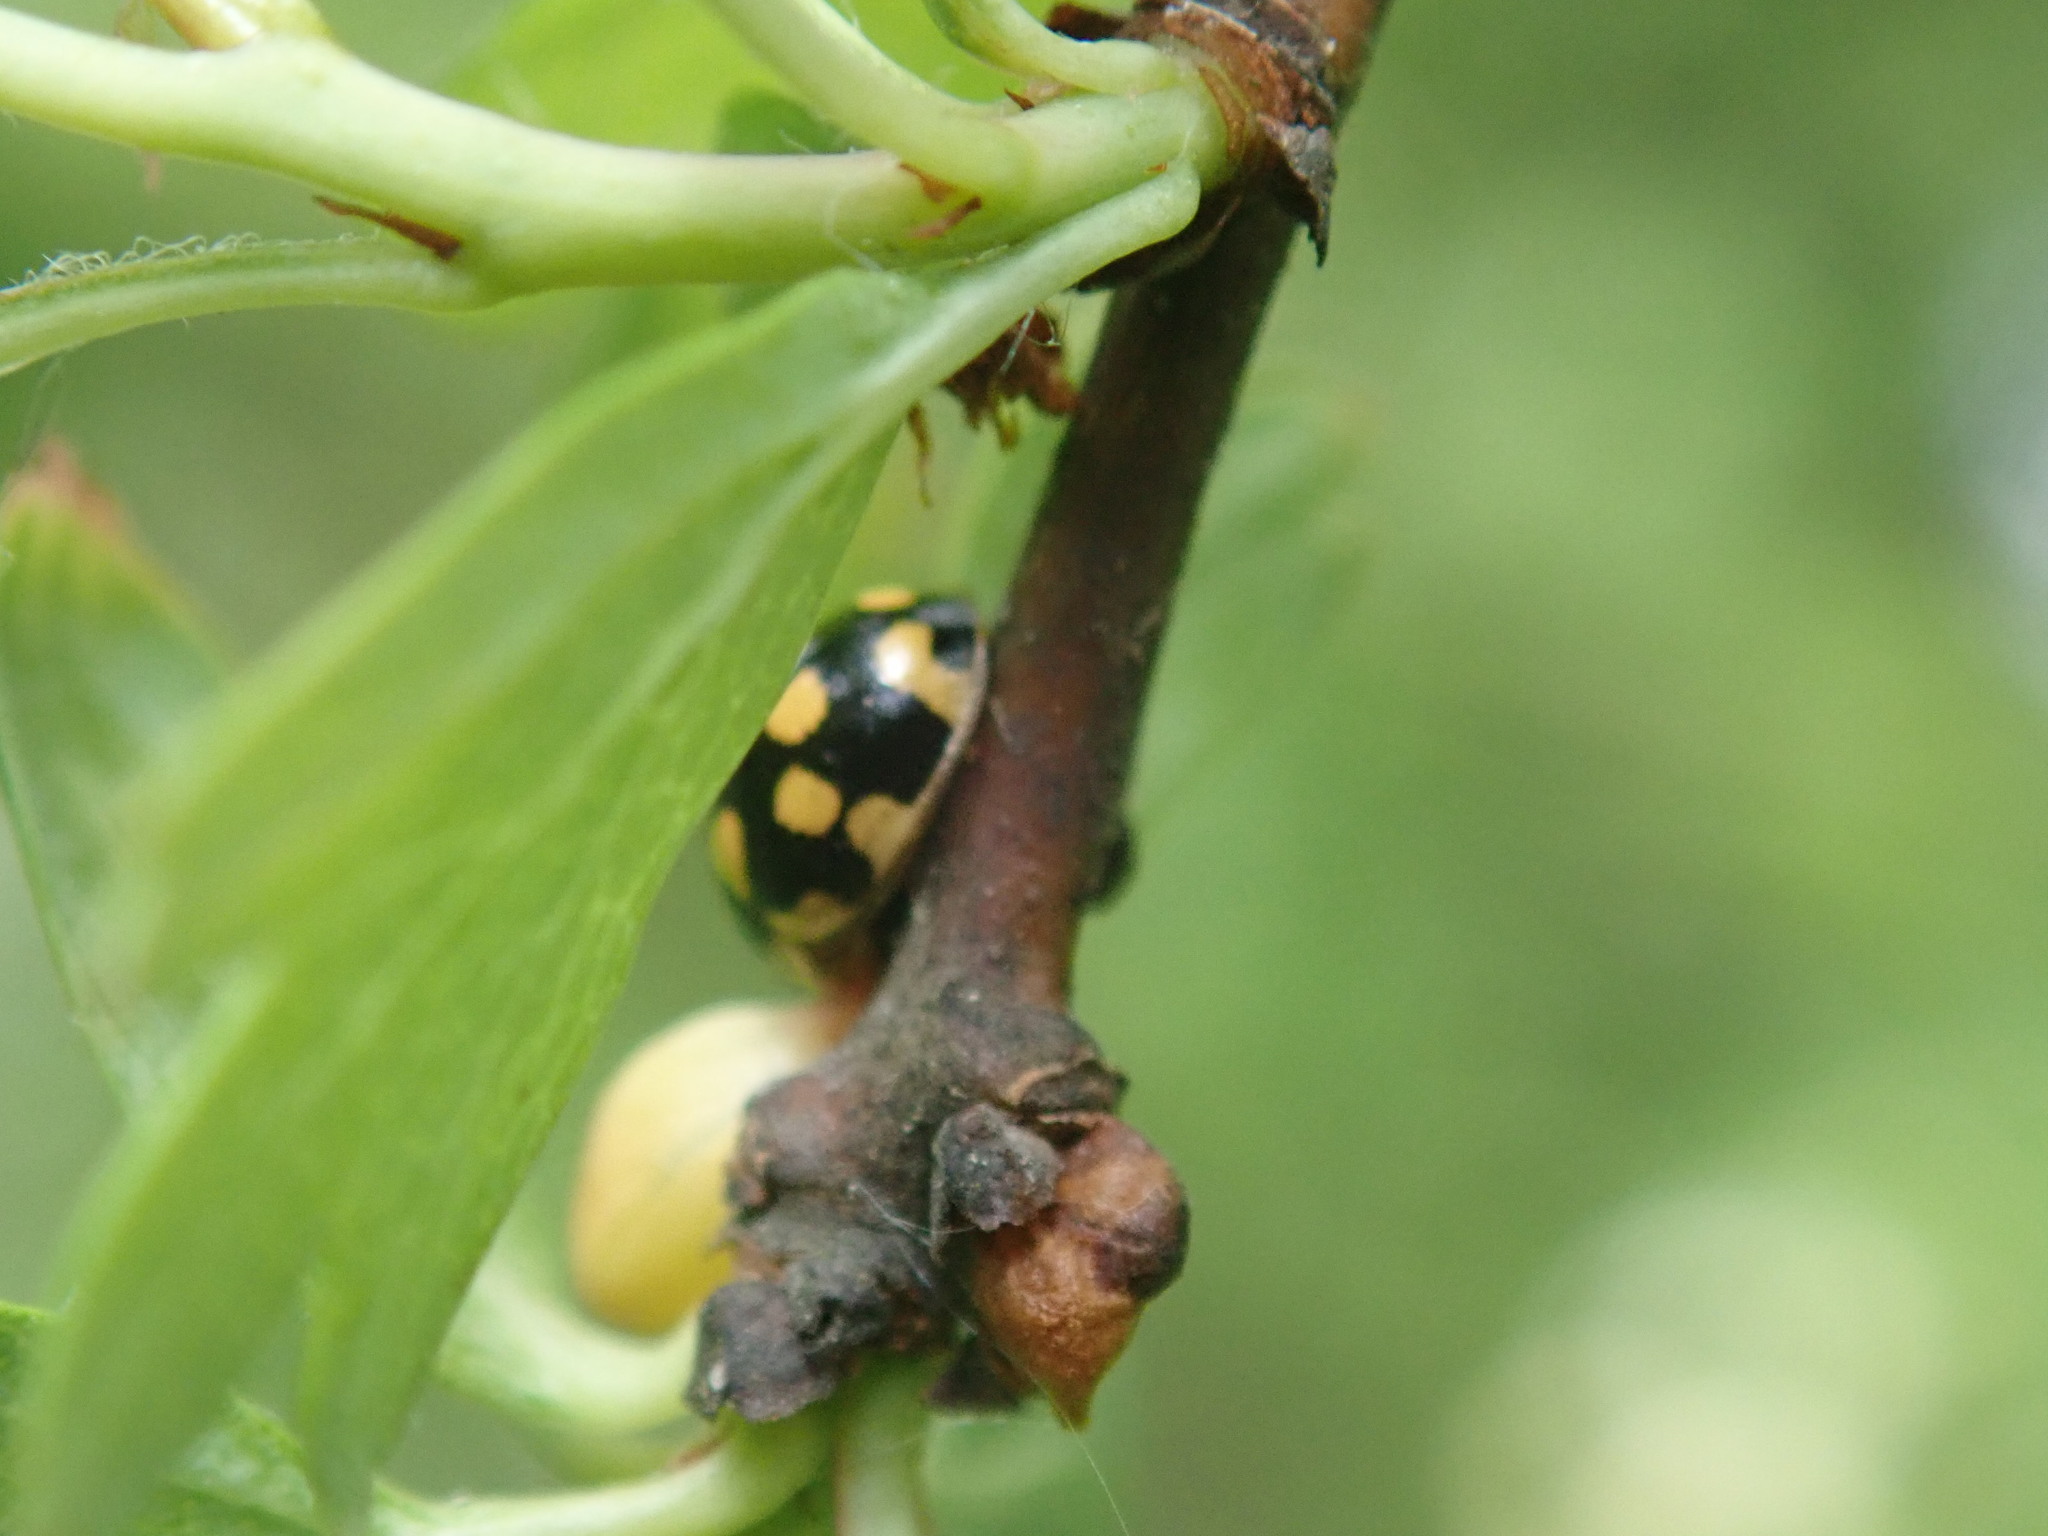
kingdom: Animalia
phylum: Arthropoda
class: Insecta
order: Coleoptera
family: Coccinellidae
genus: Propylaea
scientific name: Propylaea quatuordecimpunctata
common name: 14-spotted ladybird beetle
